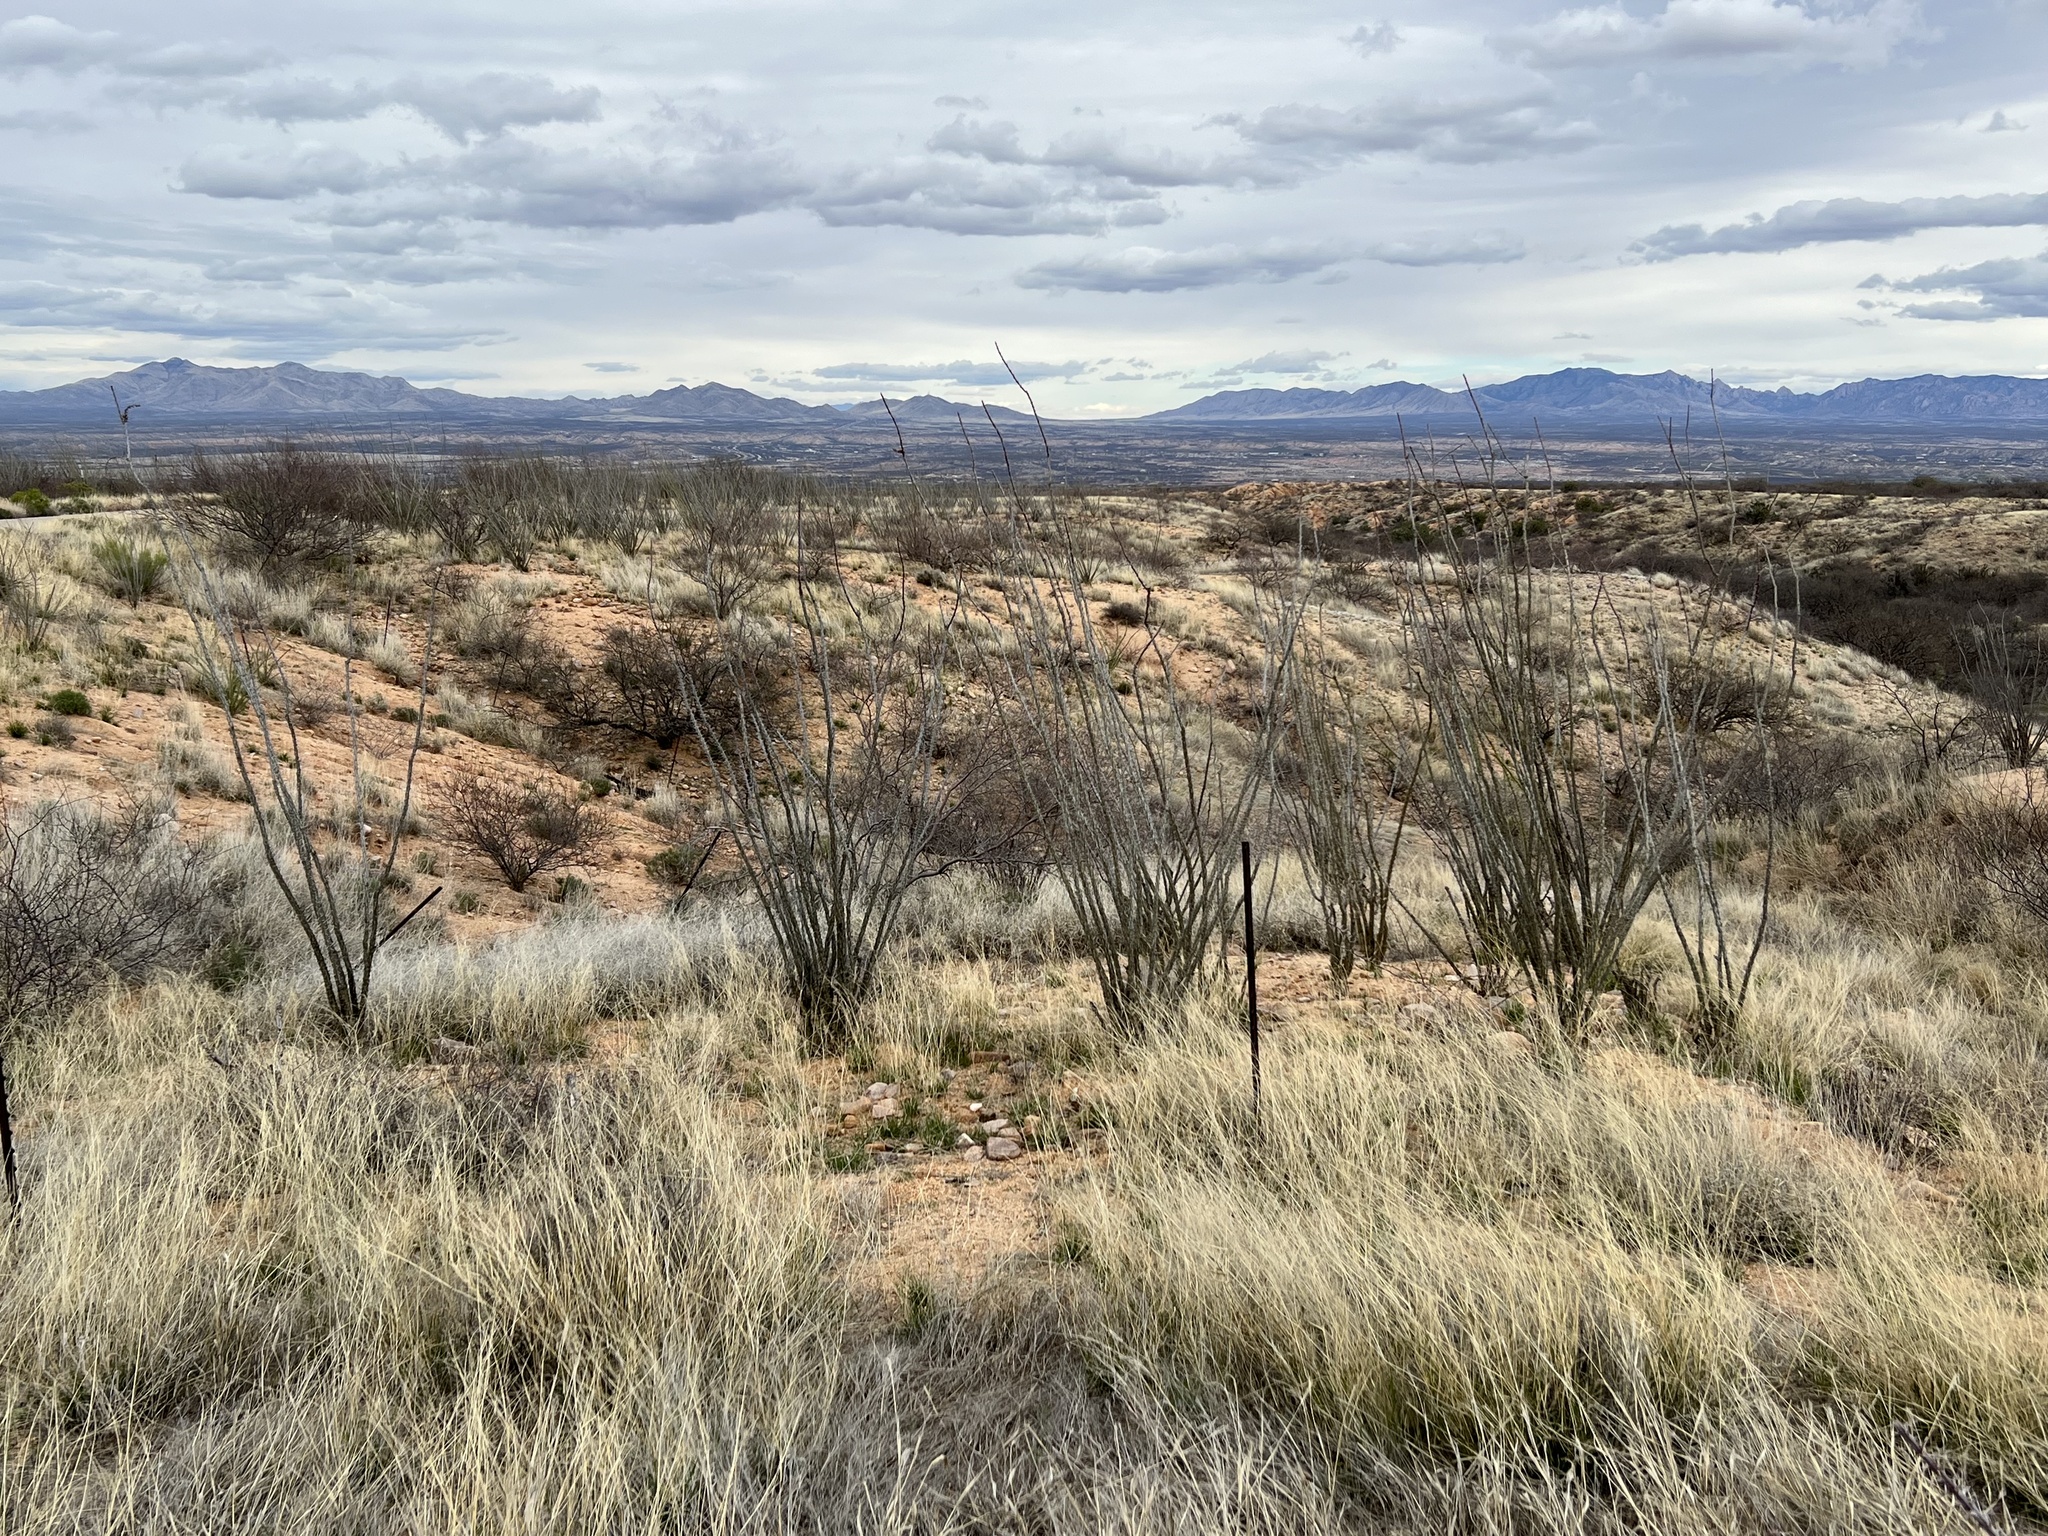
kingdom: Plantae
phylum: Tracheophyta
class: Magnoliopsida
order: Ericales
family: Fouquieriaceae
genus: Fouquieria
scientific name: Fouquieria splendens
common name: Vine-cactus
